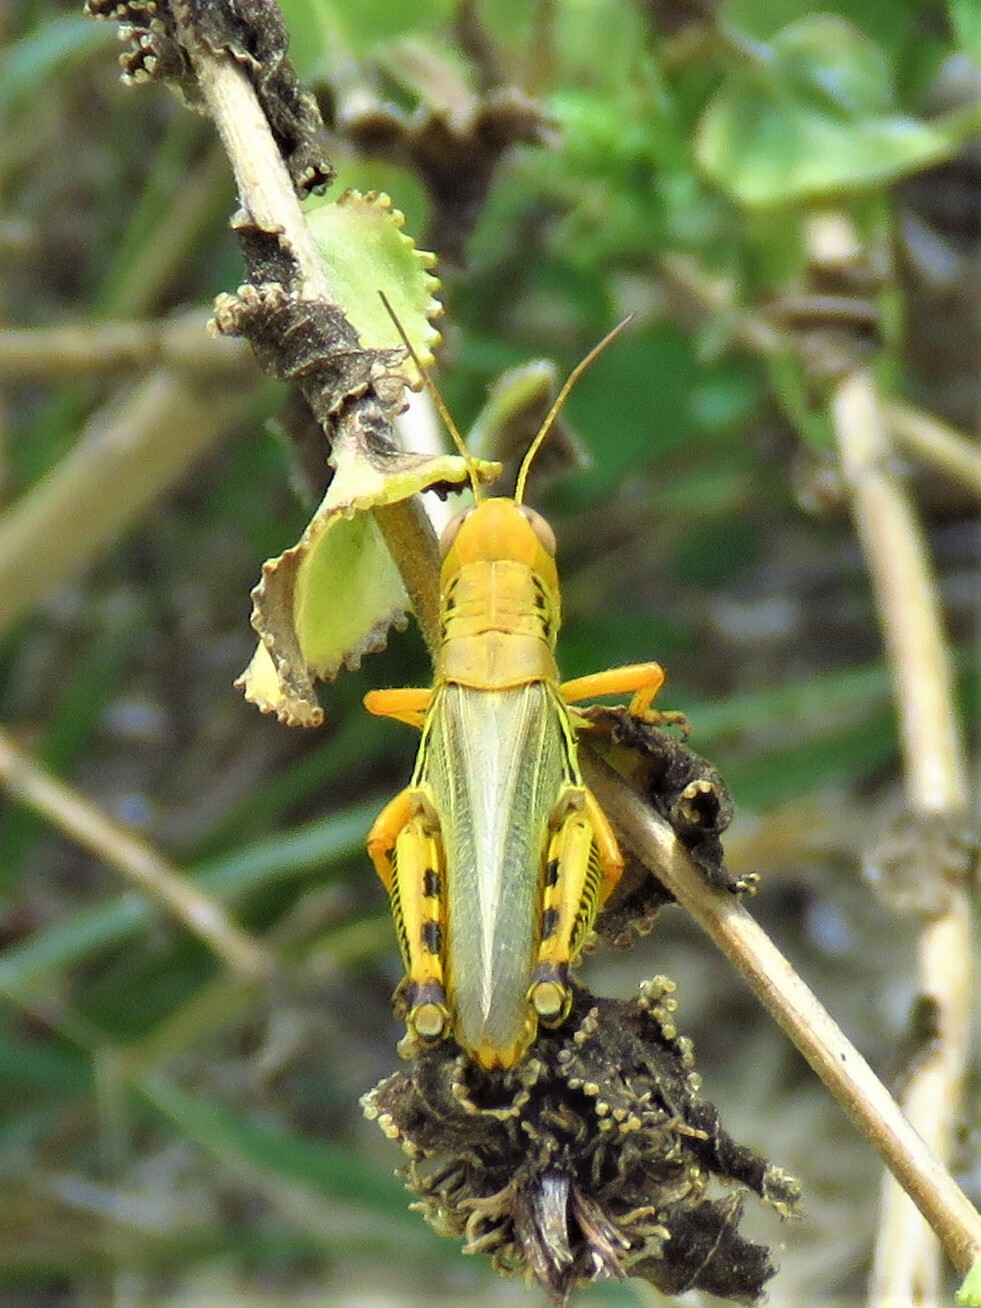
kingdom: Animalia
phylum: Arthropoda
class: Insecta
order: Orthoptera
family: Acrididae
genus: Melanoplus
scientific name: Melanoplus differentialis
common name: Differential grasshopper
